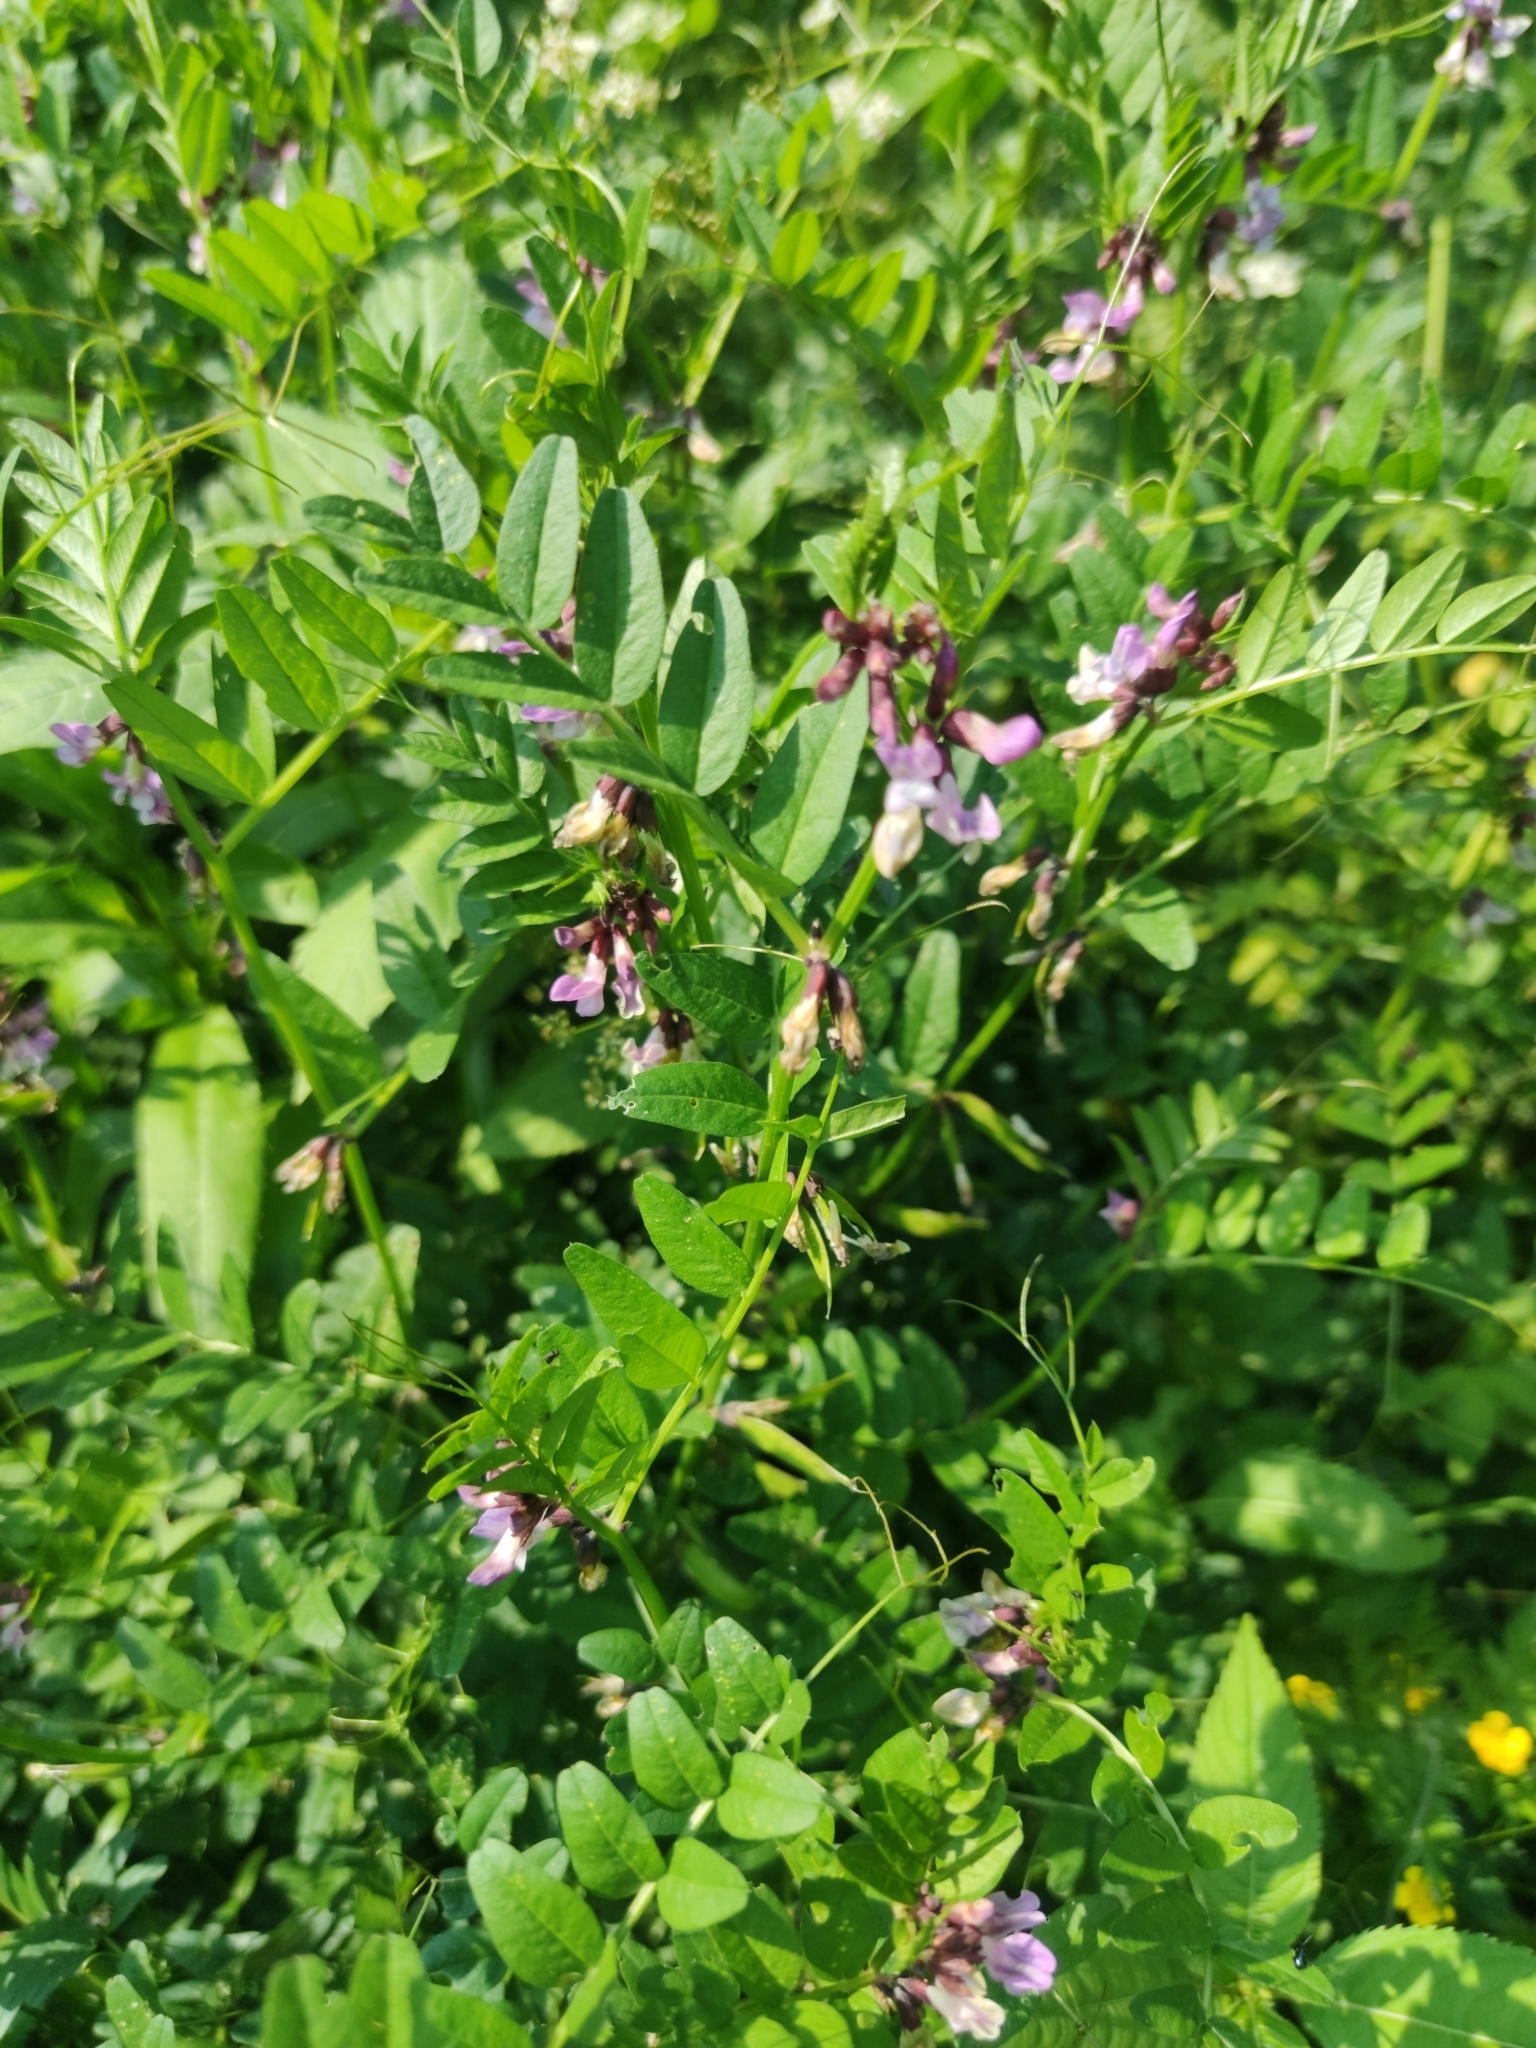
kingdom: Plantae
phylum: Tracheophyta
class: Magnoliopsida
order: Fabales
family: Fabaceae
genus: Vicia
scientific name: Vicia sepium
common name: Bush vetch
